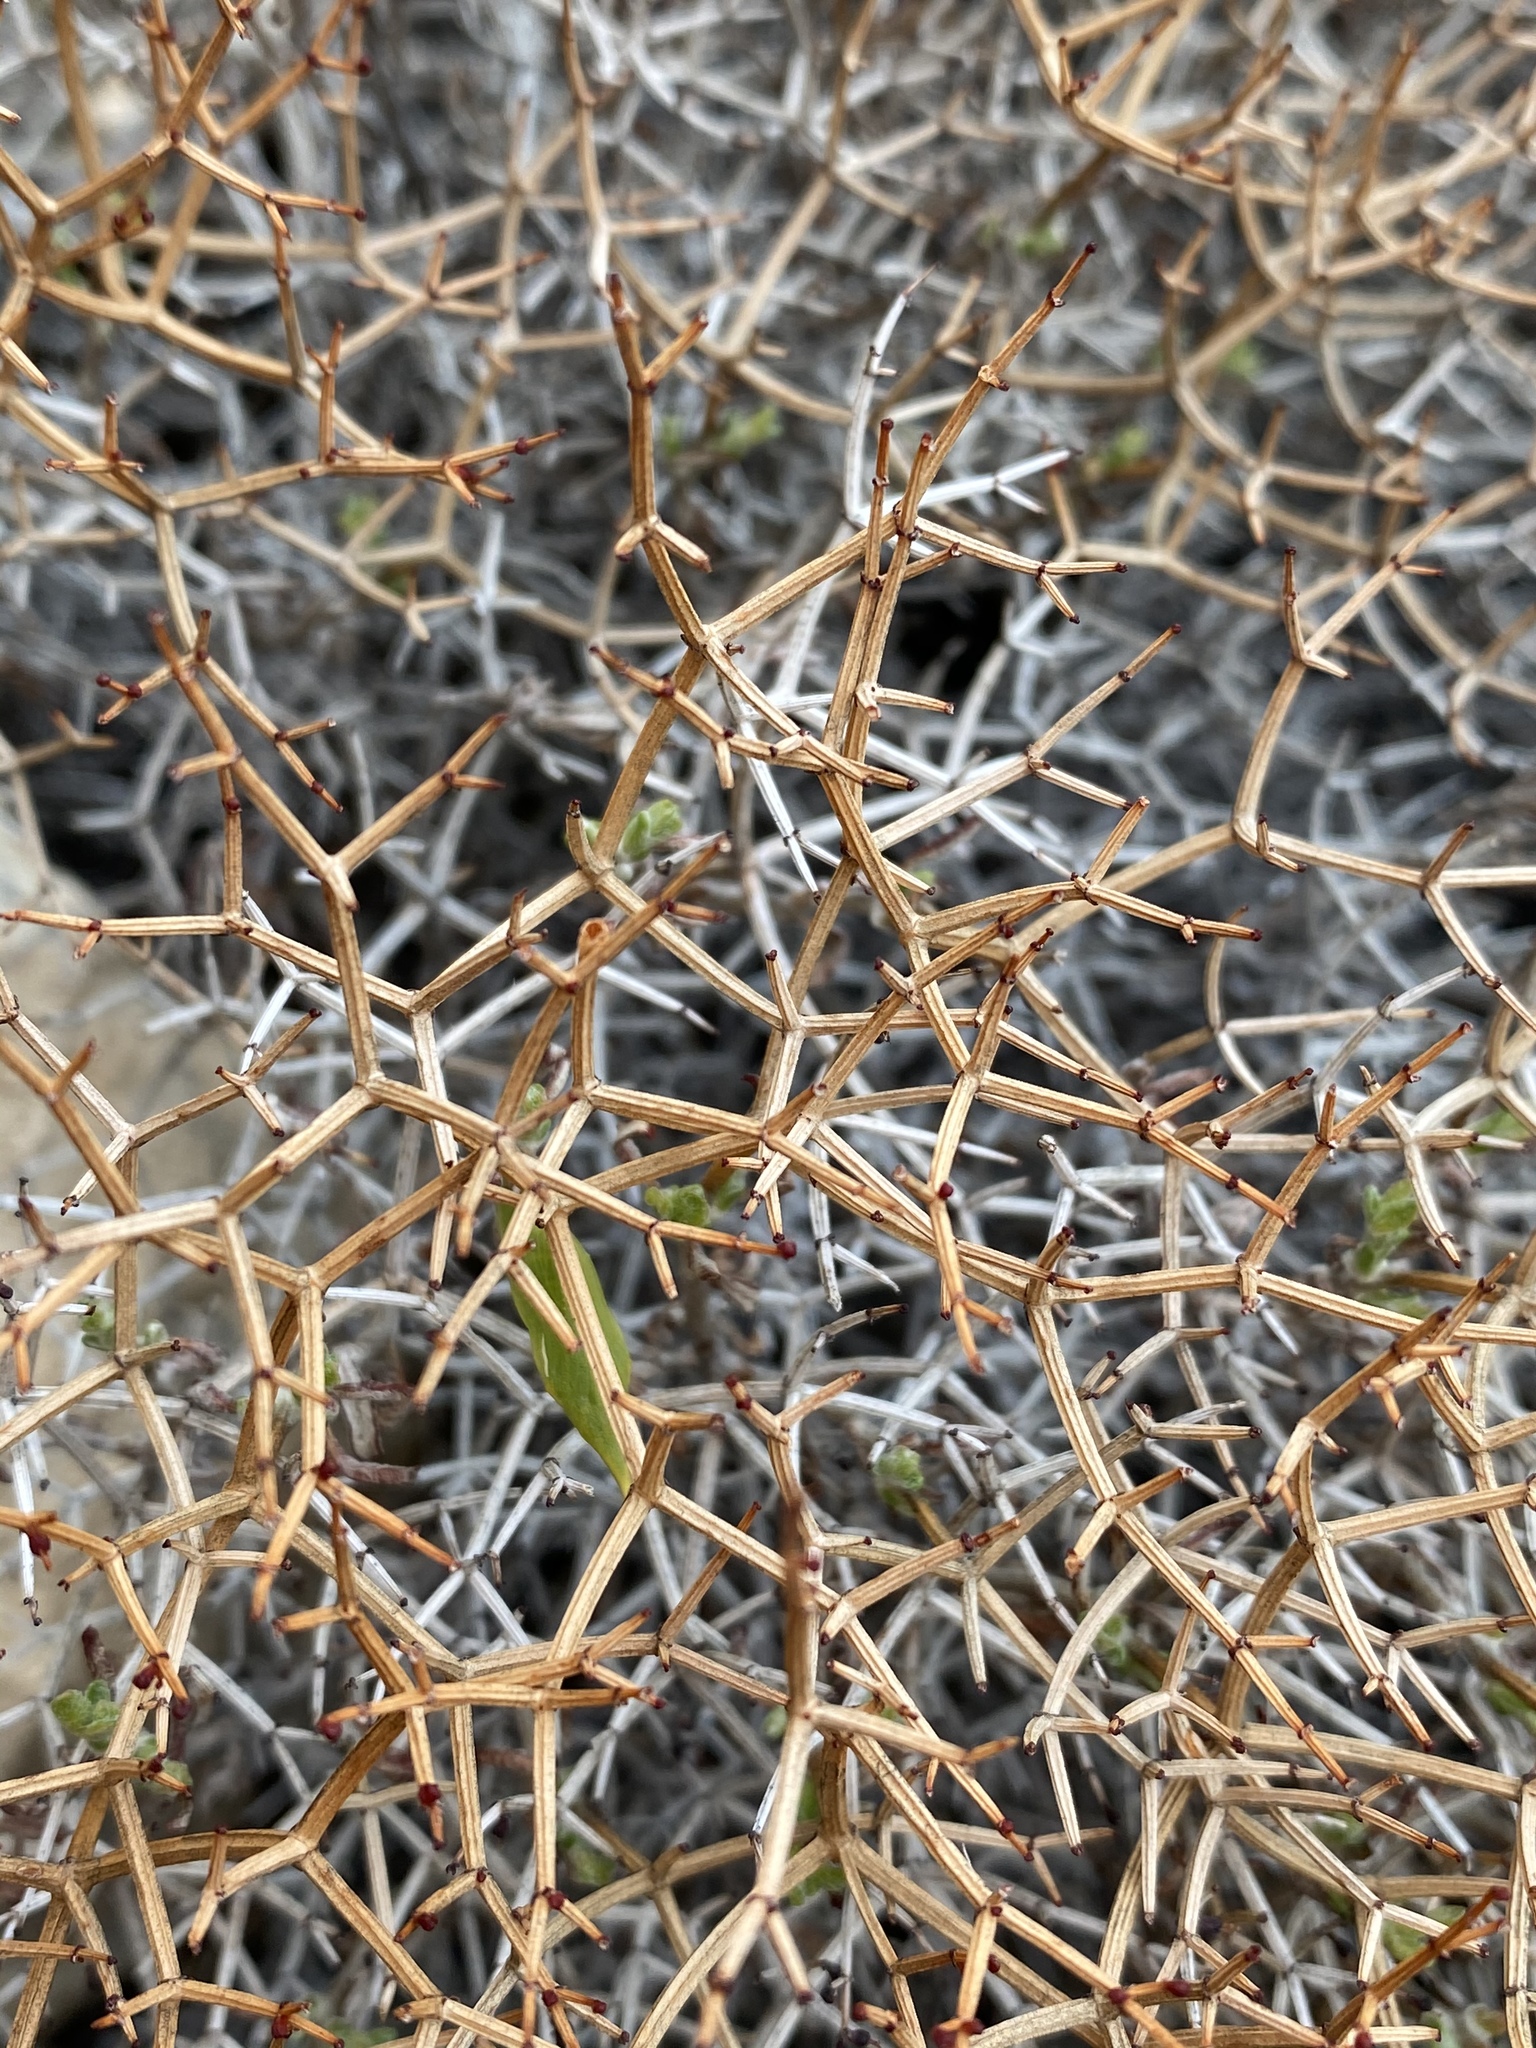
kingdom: Plantae
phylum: Tracheophyta
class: Magnoliopsida
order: Caryophyllales
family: Polygonaceae
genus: Eriogonum
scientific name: Eriogonum heermannii
